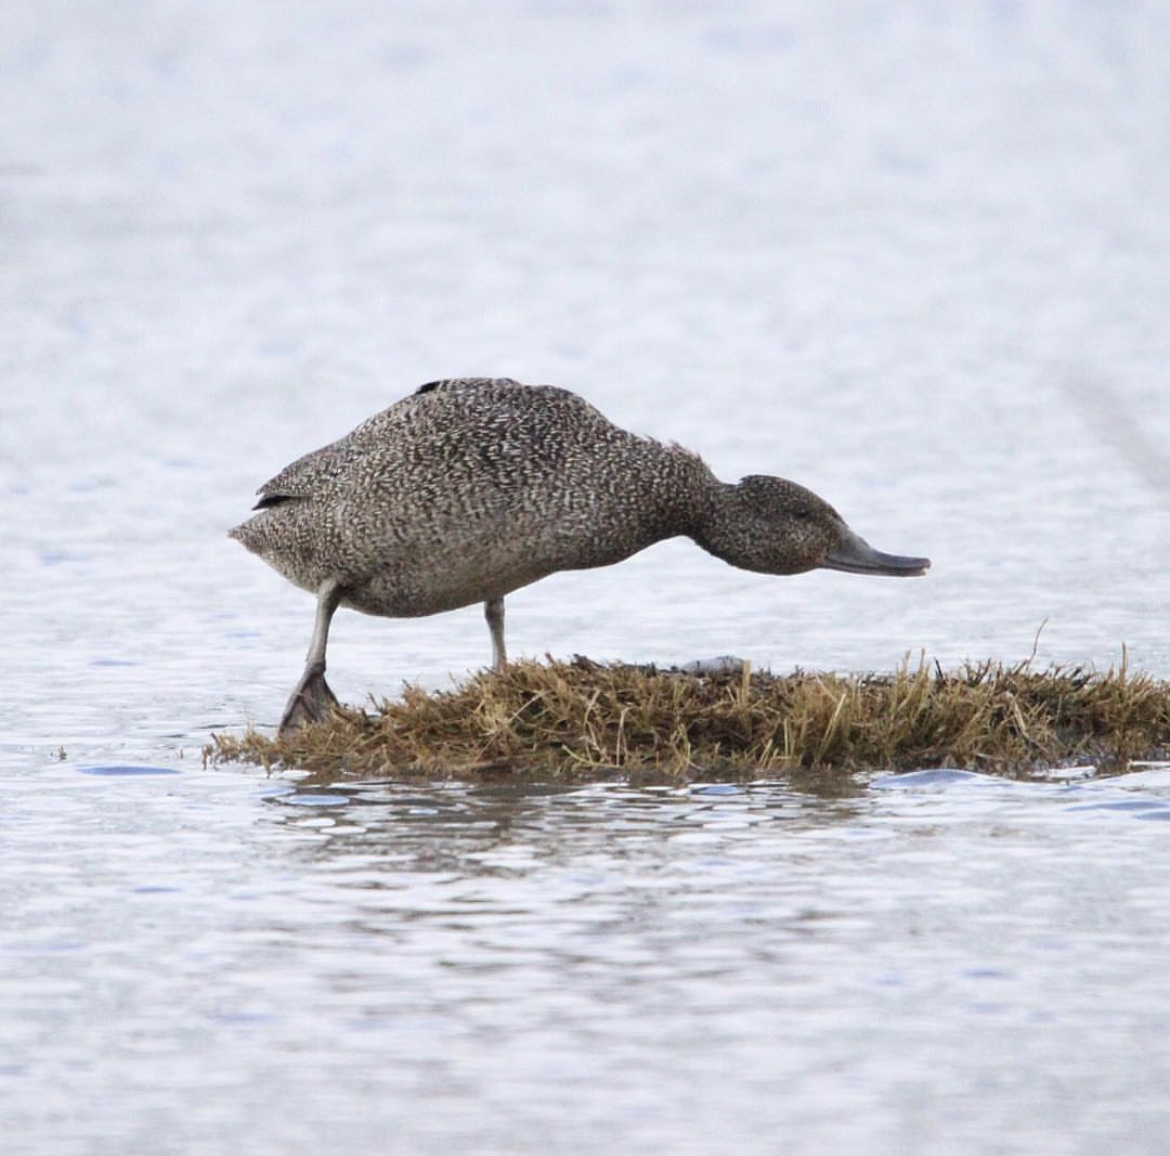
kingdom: Animalia
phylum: Chordata
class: Aves
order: Anseriformes
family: Anatidae
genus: Stictonetta
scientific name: Stictonetta naevosa
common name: Freckled duck
